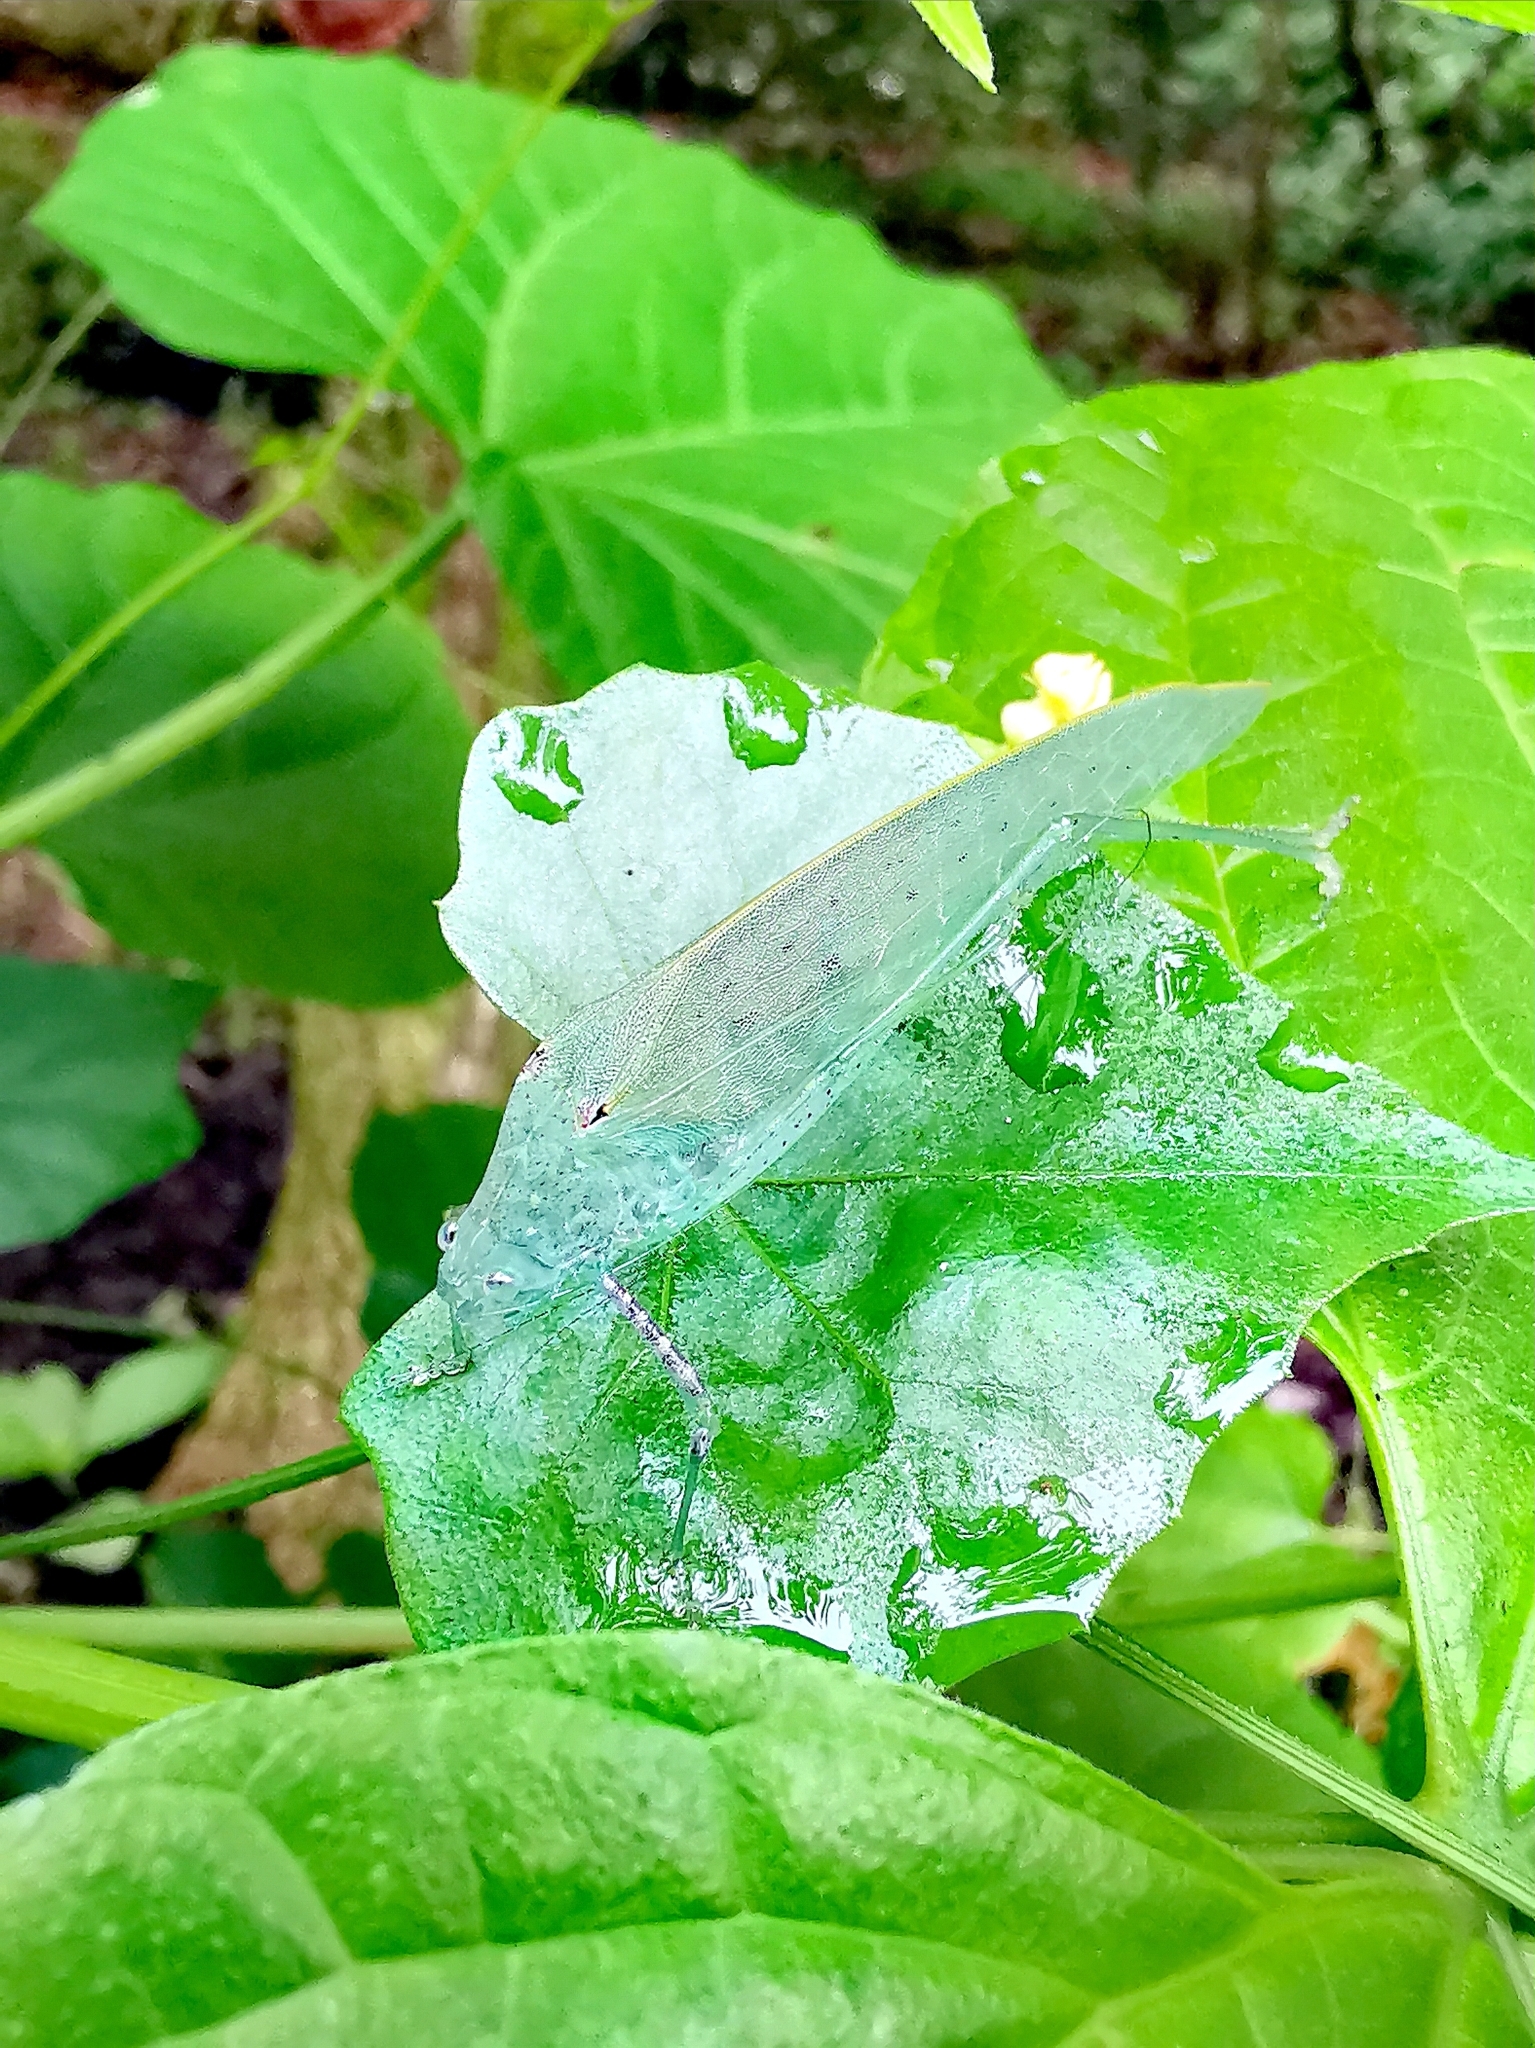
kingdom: Animalia
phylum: Arthropoda
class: Insecta
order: Orthoptera
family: Tettigoniidae
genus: Stictophaula
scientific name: Stictophaula bakeri
